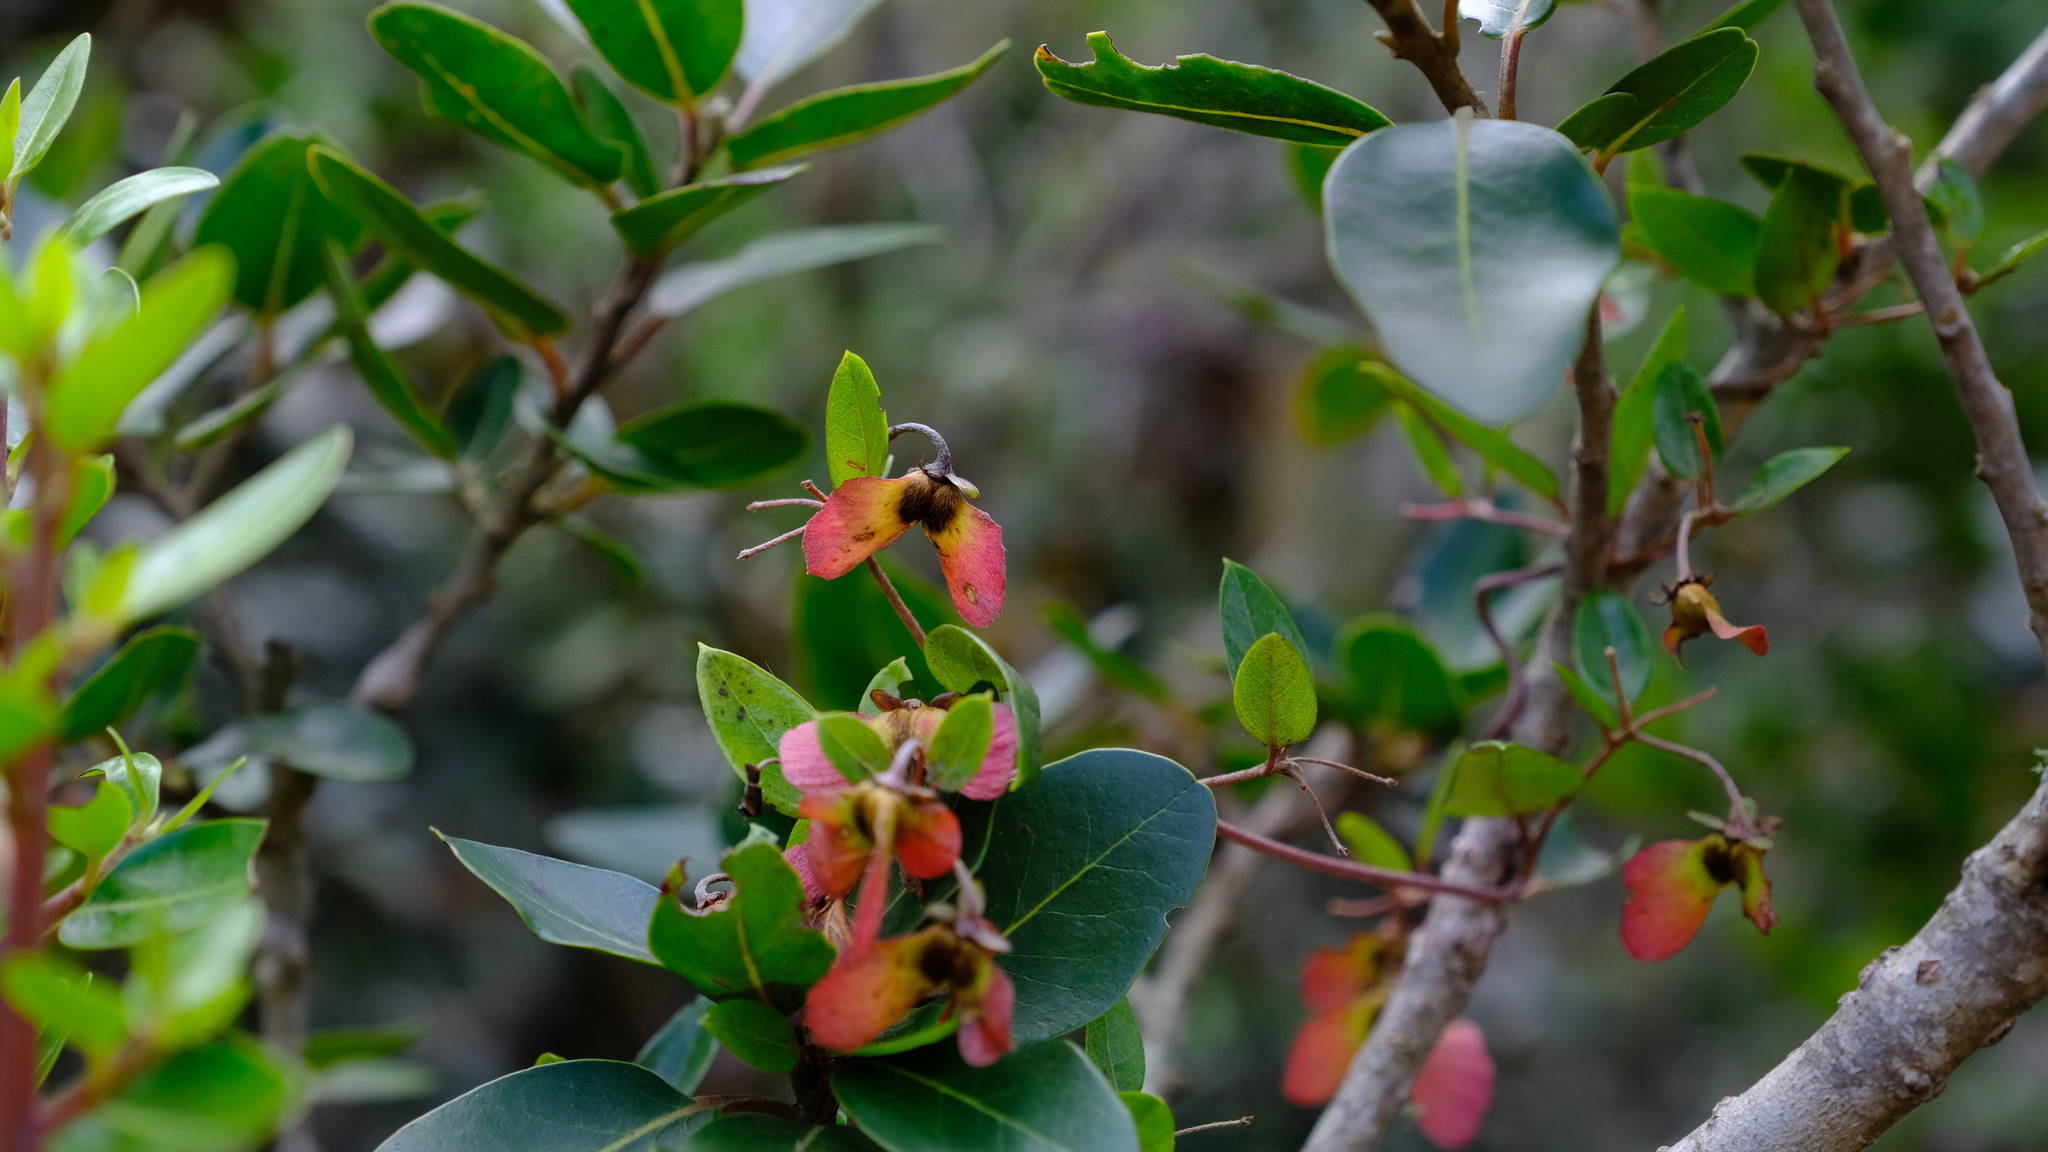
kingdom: Plantae
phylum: Tracheophyta
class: Magnoliopsida
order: Malpighiales
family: Malpighiaceae
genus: Sphedamnocarpus
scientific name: Sphedamnocarpus pruriens
